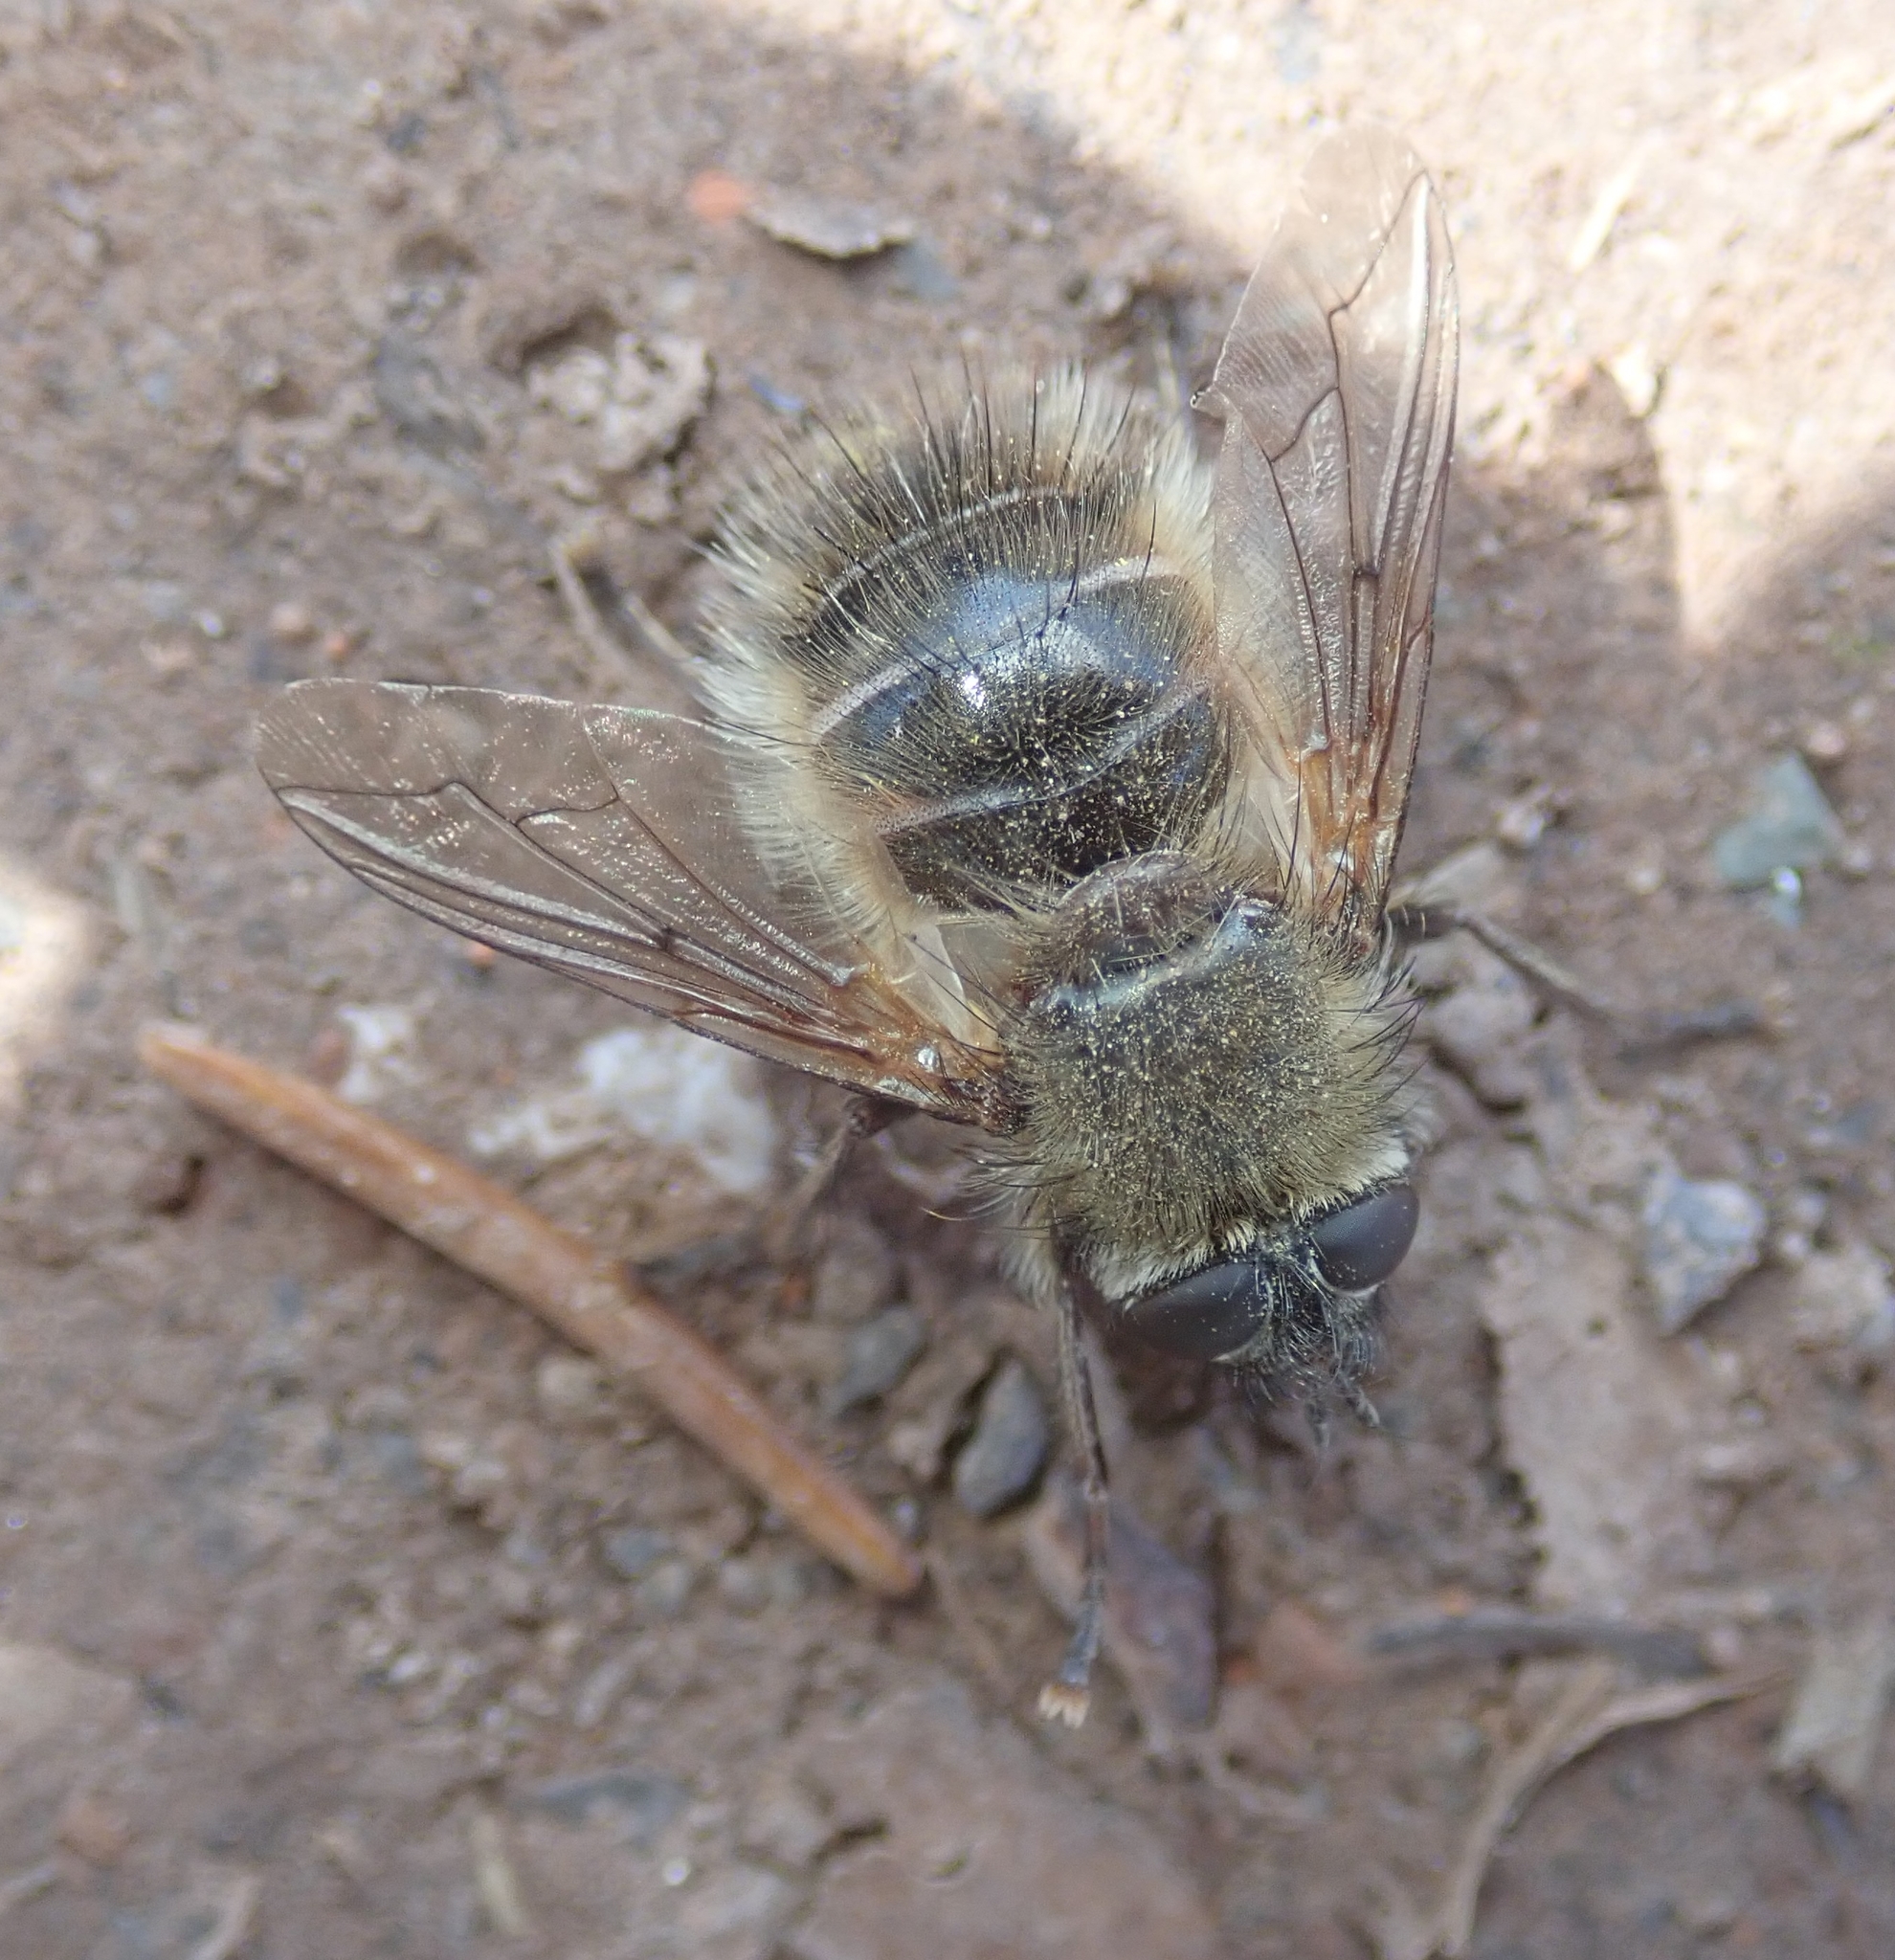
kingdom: Animalia
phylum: Arthropoda
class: Insecta
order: Diptera
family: Tachinidae
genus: Tachina
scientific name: Tachina ursina
